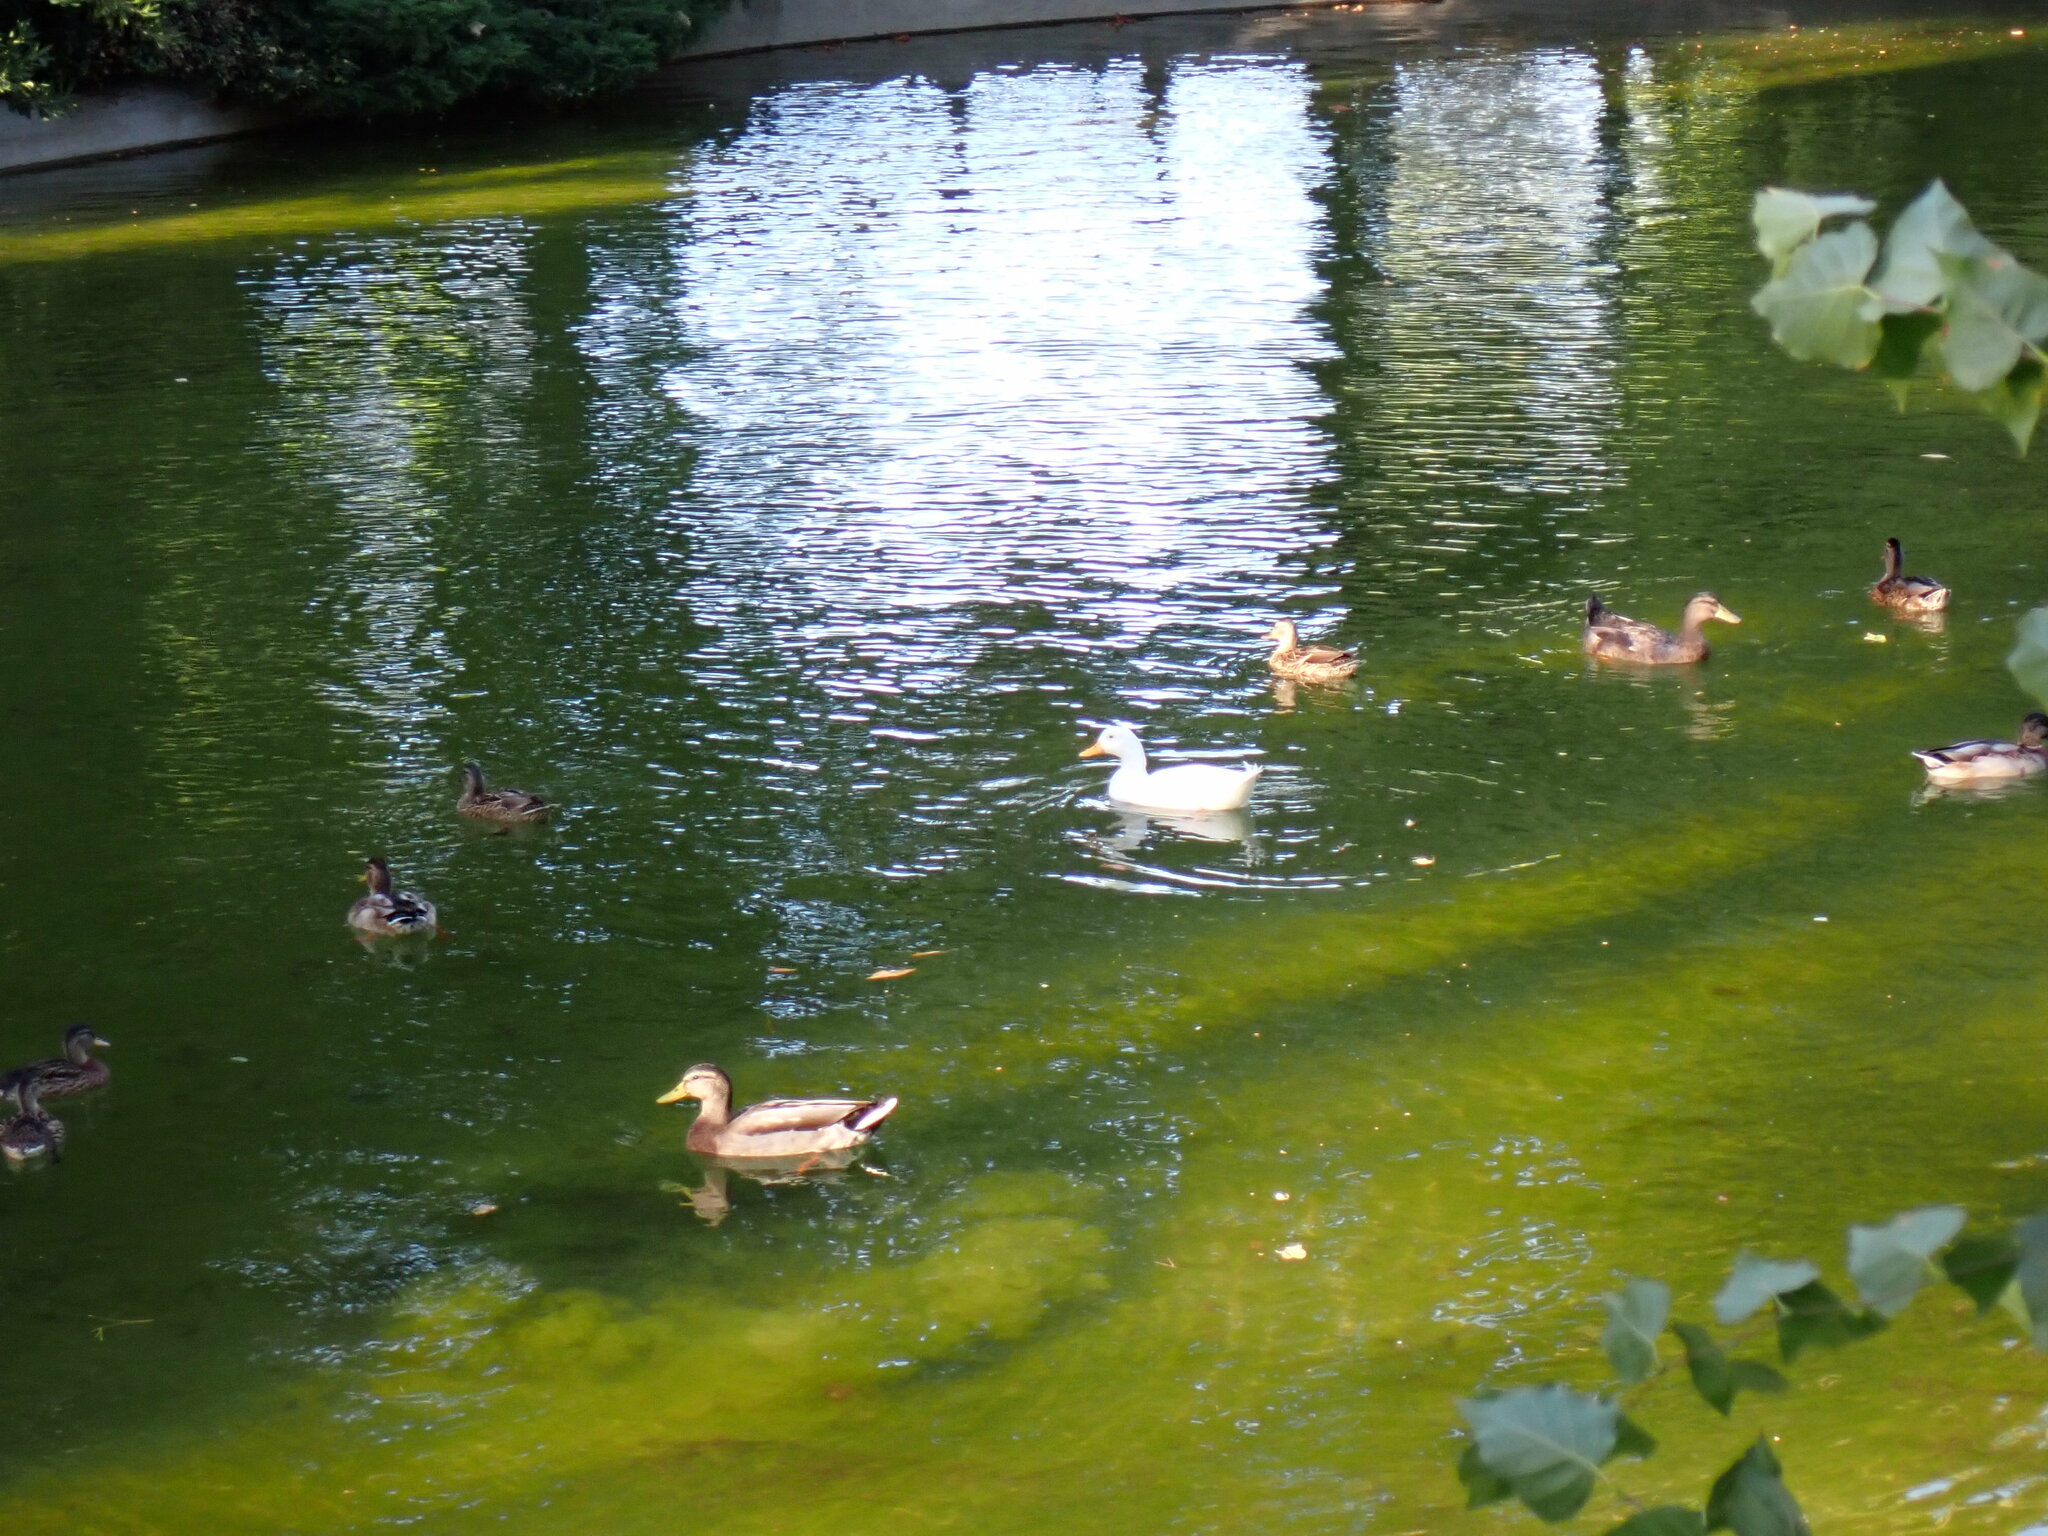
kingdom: Animalia
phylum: Chordata
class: Aves
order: Anseriformes
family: Anatidae
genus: Anas
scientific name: Anas platyrhynchos
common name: Mallard
